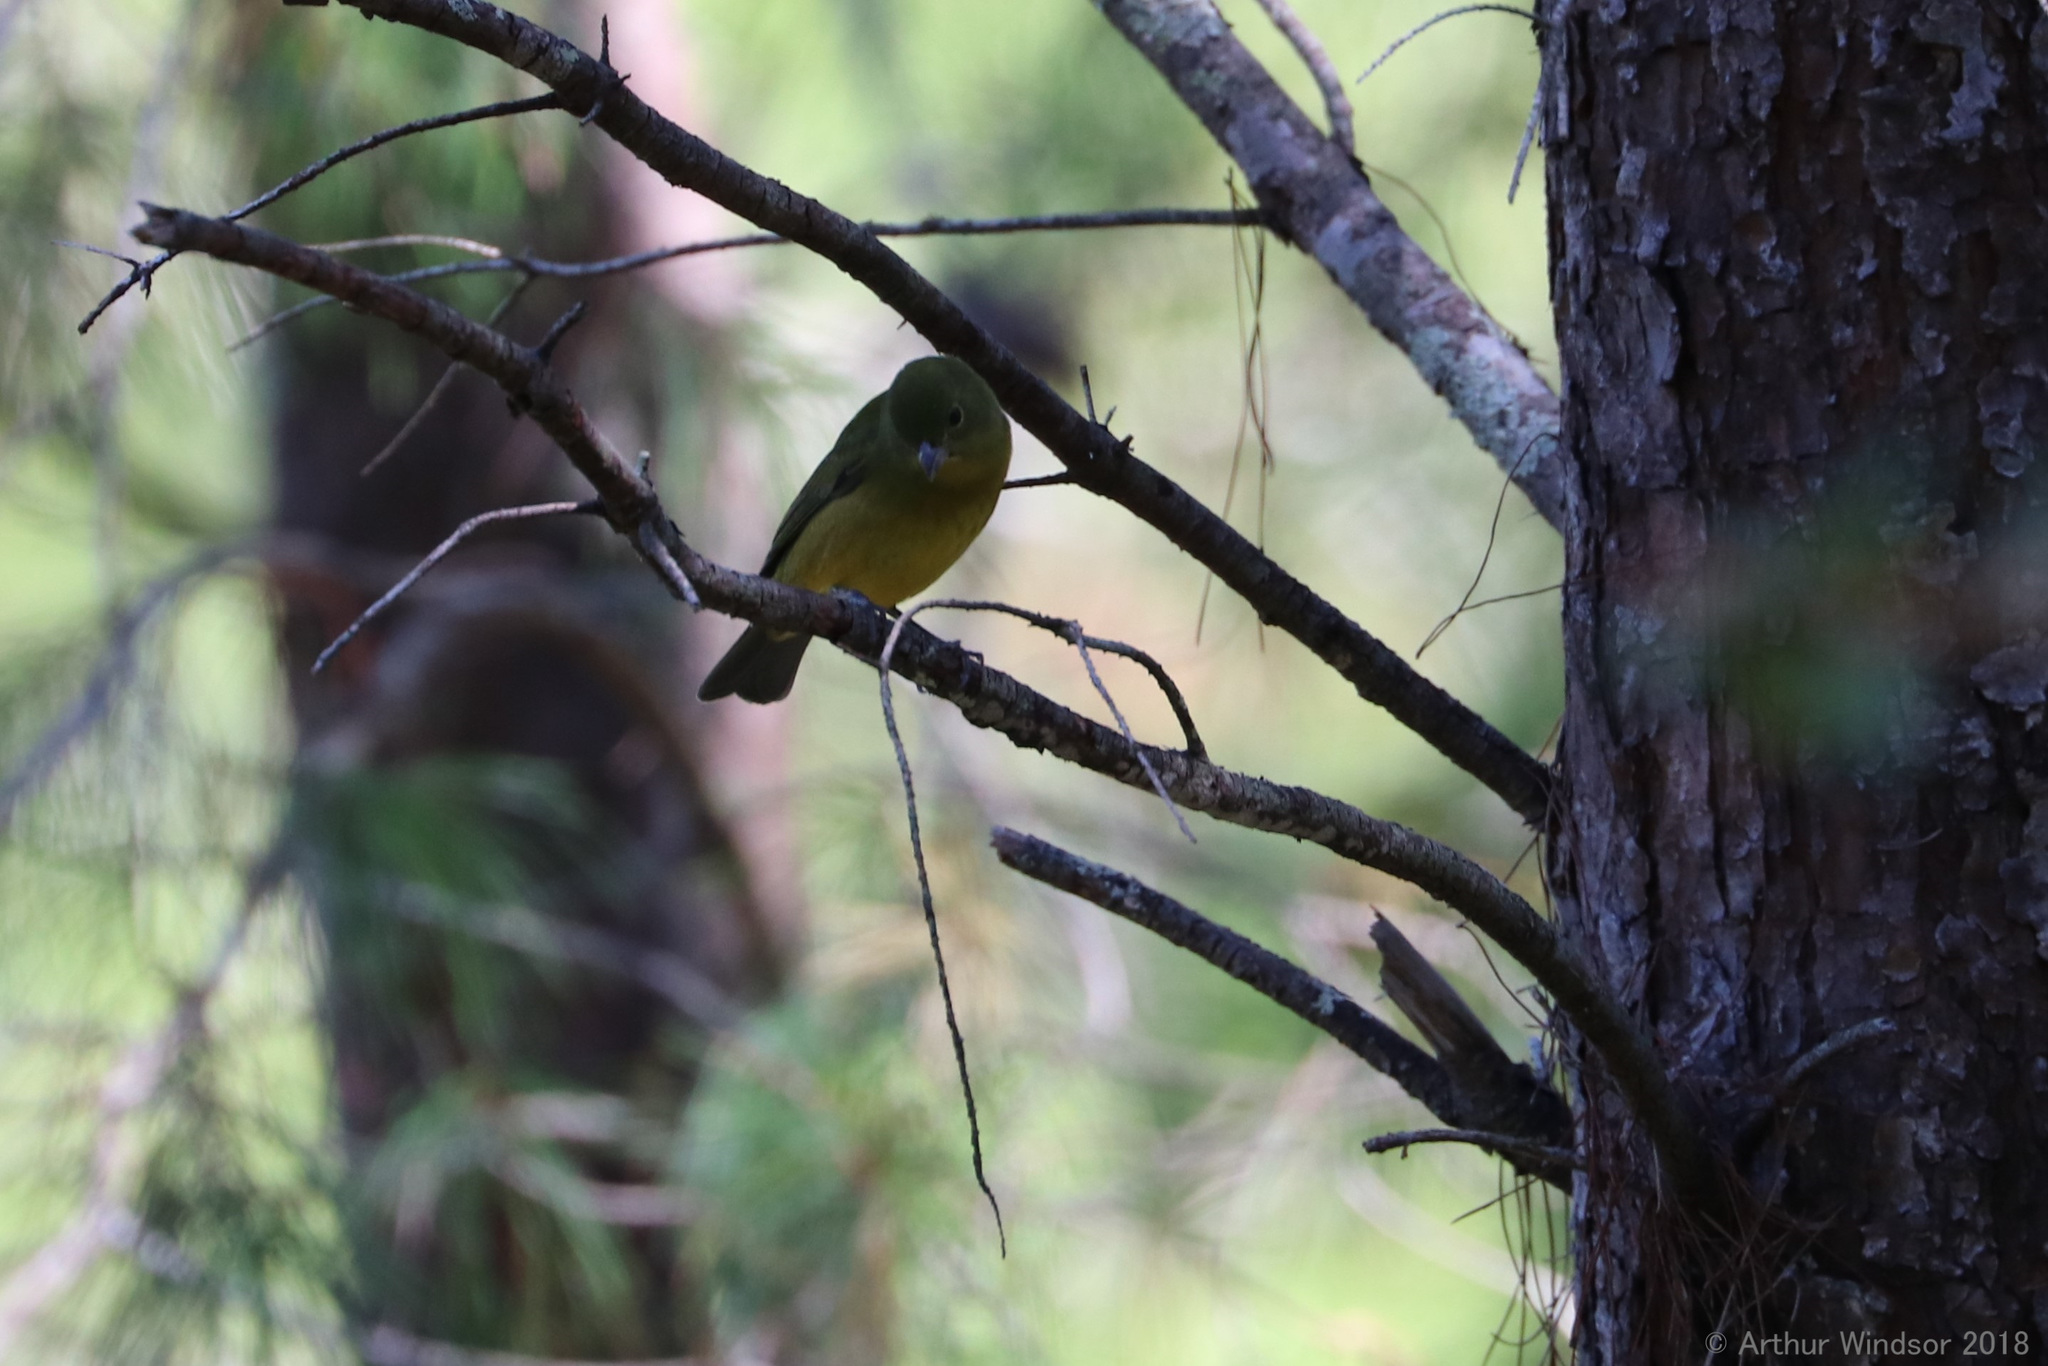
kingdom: Animalia
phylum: Chordata
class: Aves
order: Passeriformes
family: Cardinalidae
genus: Passerina
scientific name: Passerina ciris
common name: Painted bunting
